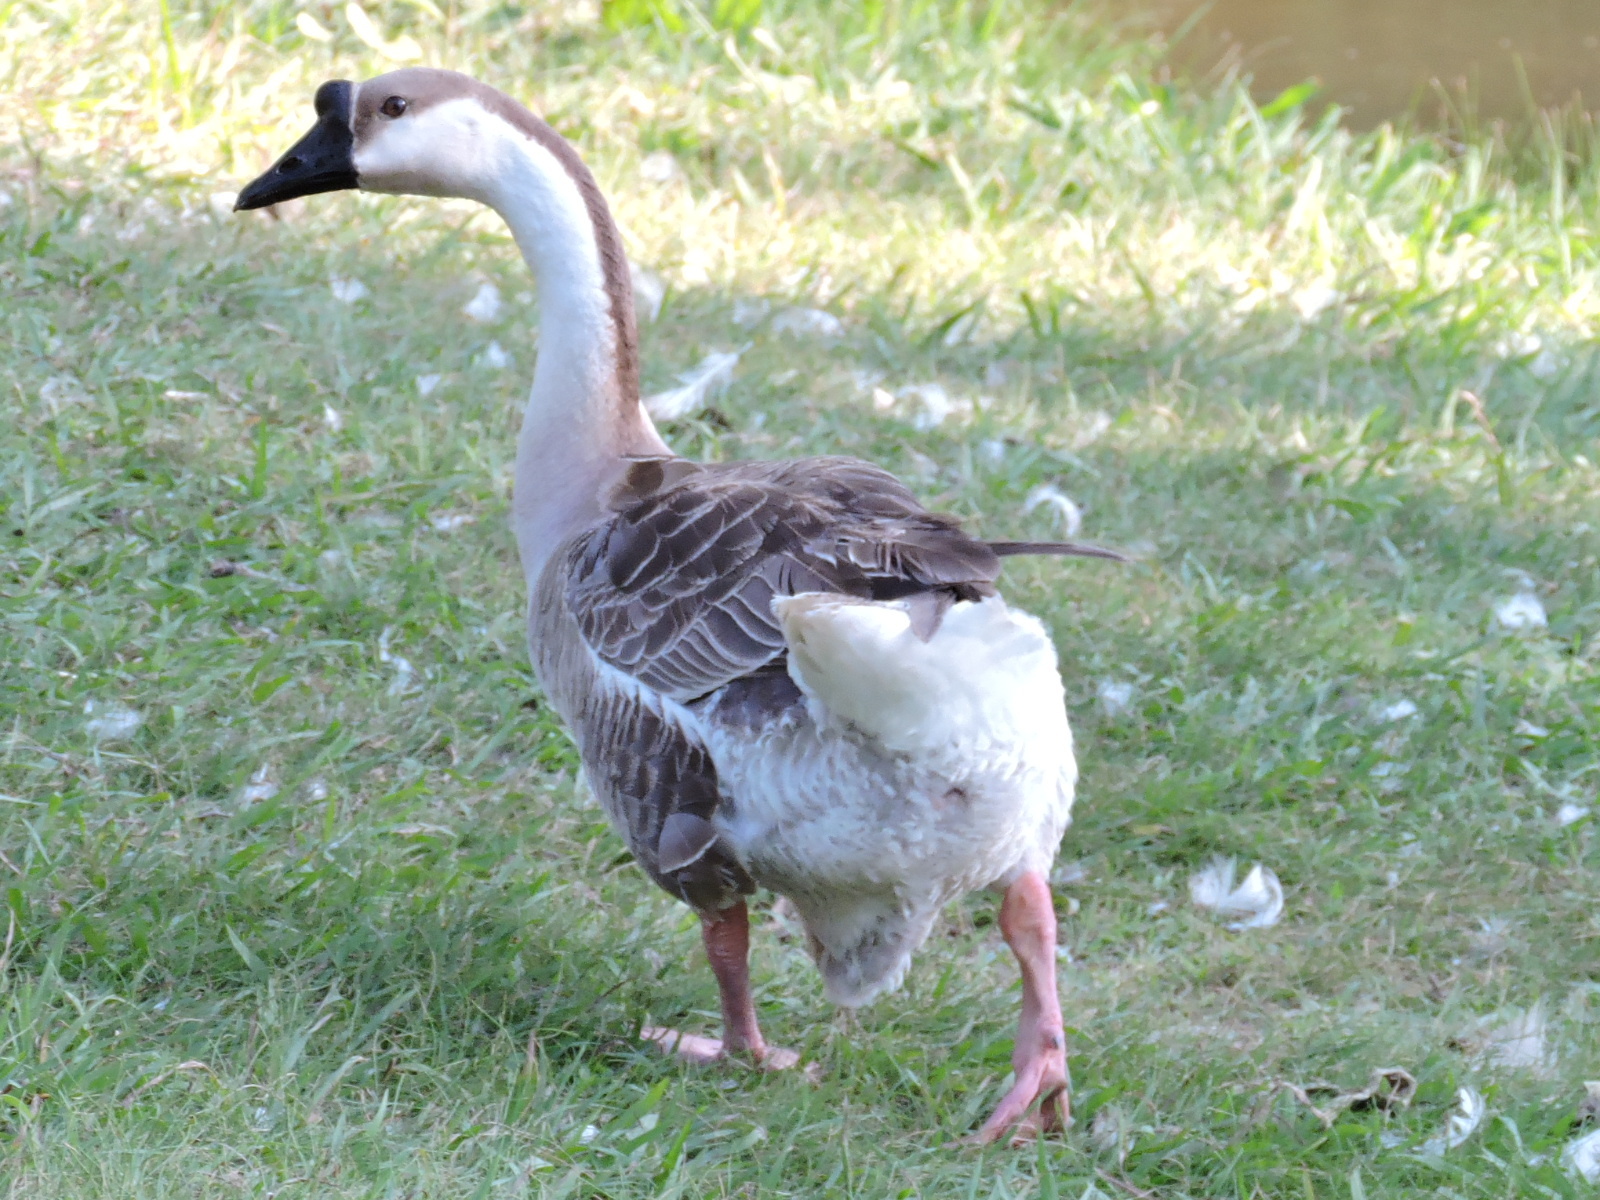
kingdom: Animalia
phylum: Chordata
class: Aves
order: Anseriformes
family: Anatidae
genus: Anser
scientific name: Anser cygnoides
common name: Swan goose
